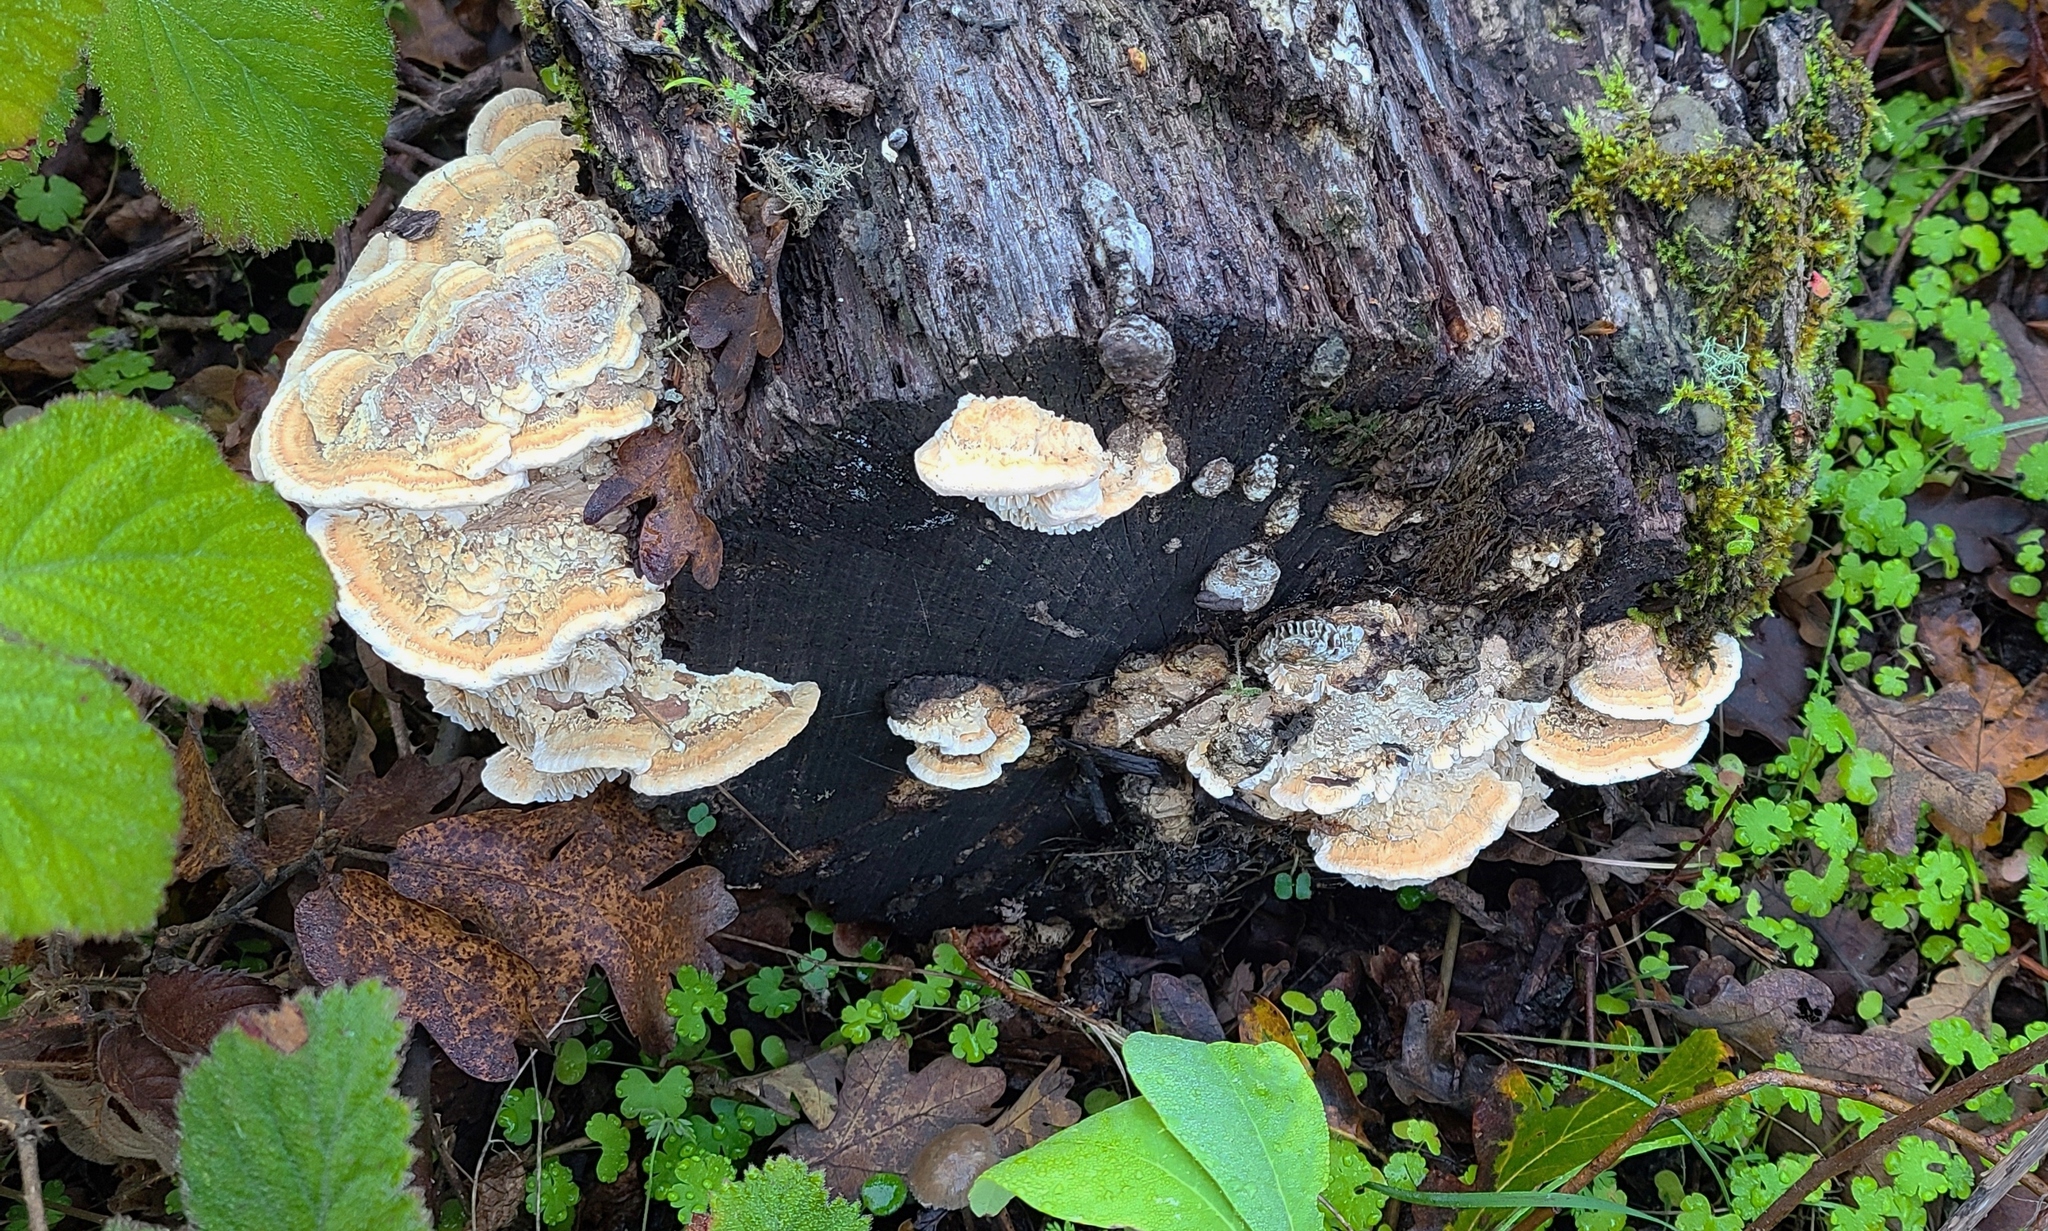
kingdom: Fungi
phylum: Basidiomycota
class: Agaricomycetes
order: Polyporales
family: Fomitopsidaceae
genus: Fomitopsis
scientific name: Fomitopsis
